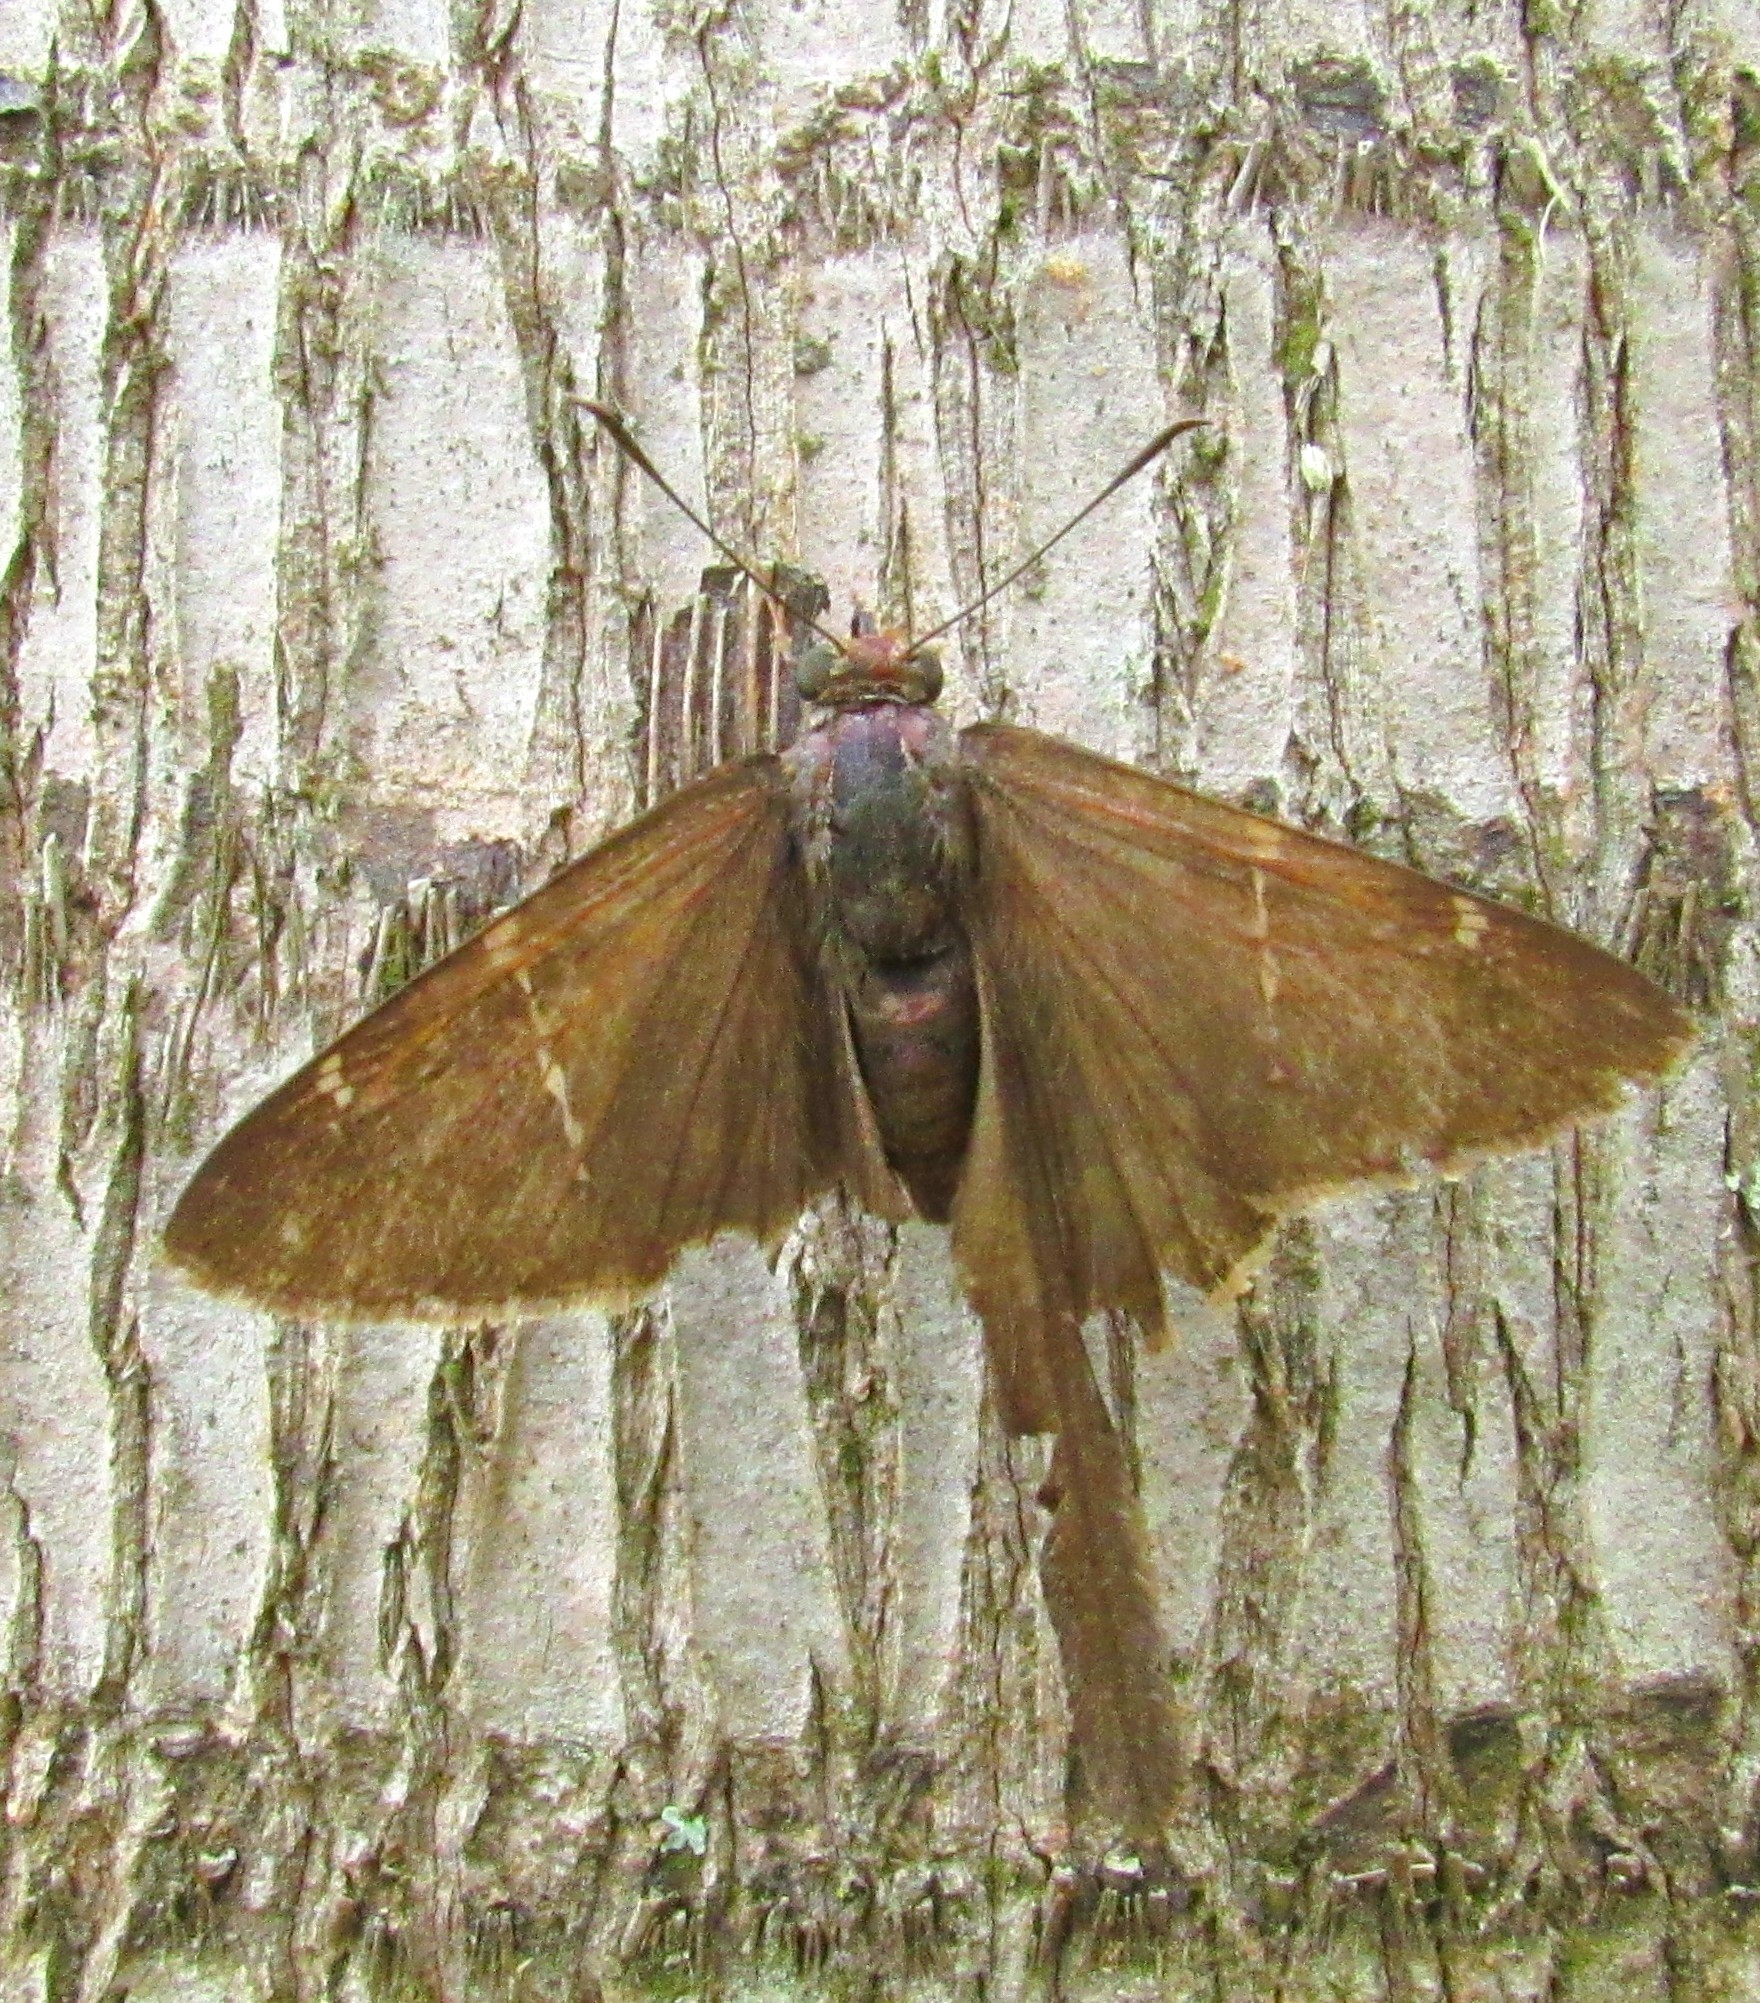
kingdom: Animalia
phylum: Arthropoda
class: Insecta
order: Lepidoptera
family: Hesperiidae
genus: Urbanus
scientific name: Urbanus procne
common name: Brown longtail
